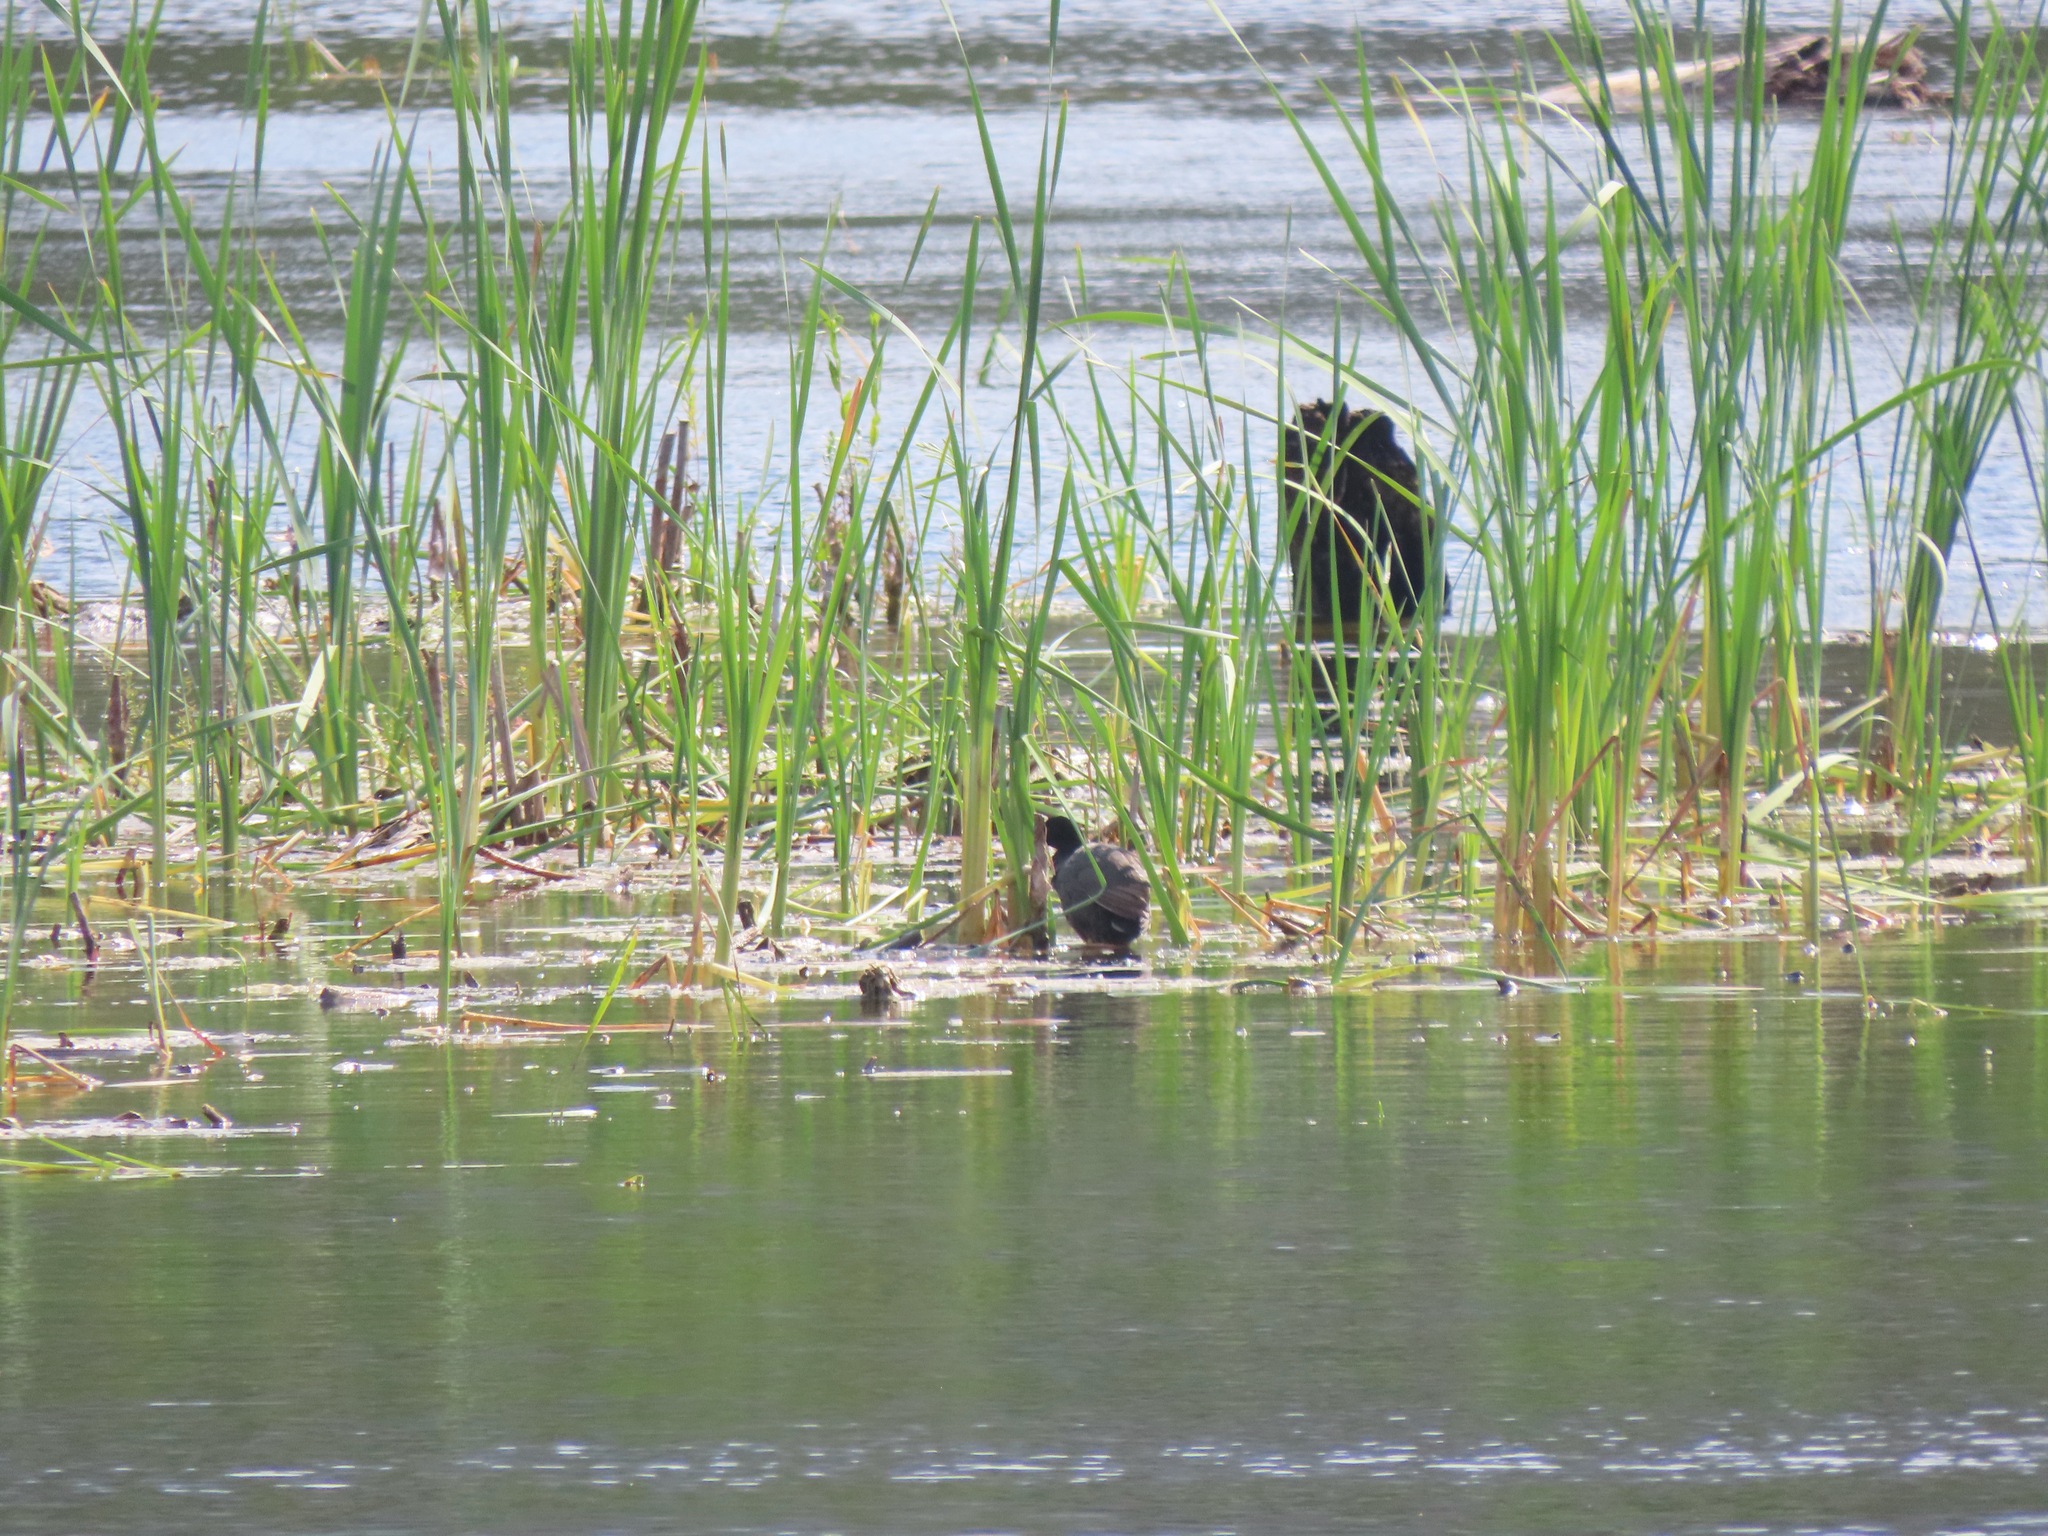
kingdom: Animalia
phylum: Chordata
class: Aves
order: Gruiformes
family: Rallidae
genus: Fulica
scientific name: Fulica americana
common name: American coot
